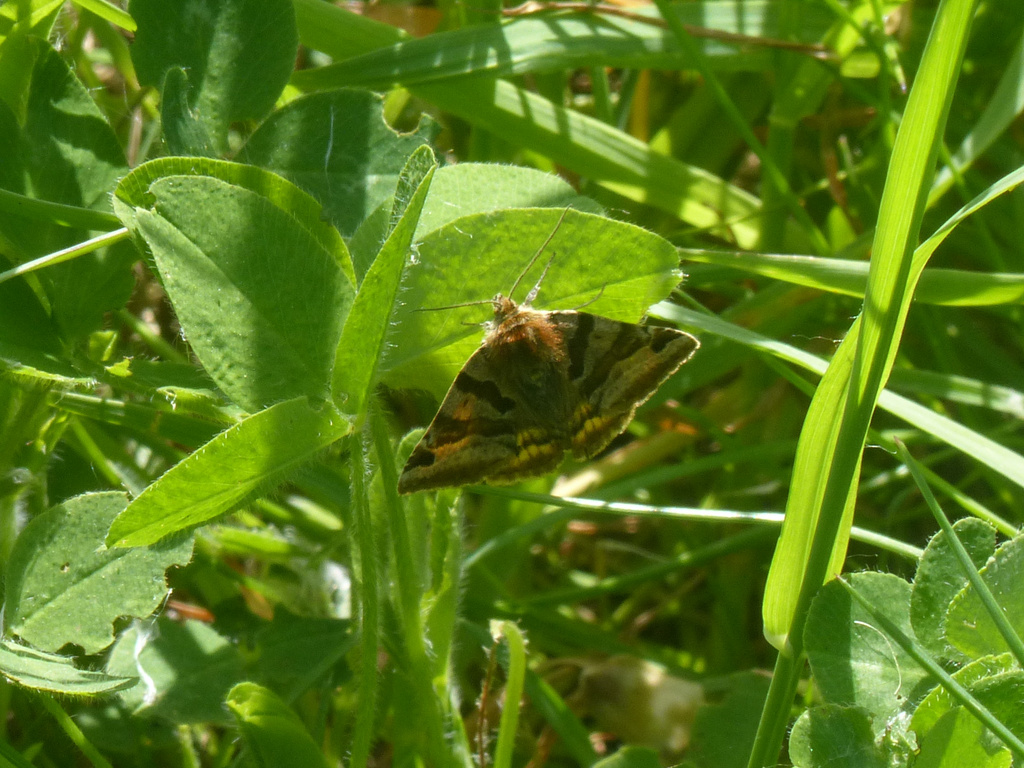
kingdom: Animalia
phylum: Arthropoda
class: Insecta
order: Lepidoptera
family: Erebidae
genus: Euclidia
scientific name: Euclidia glyphica
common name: Burnet companion
